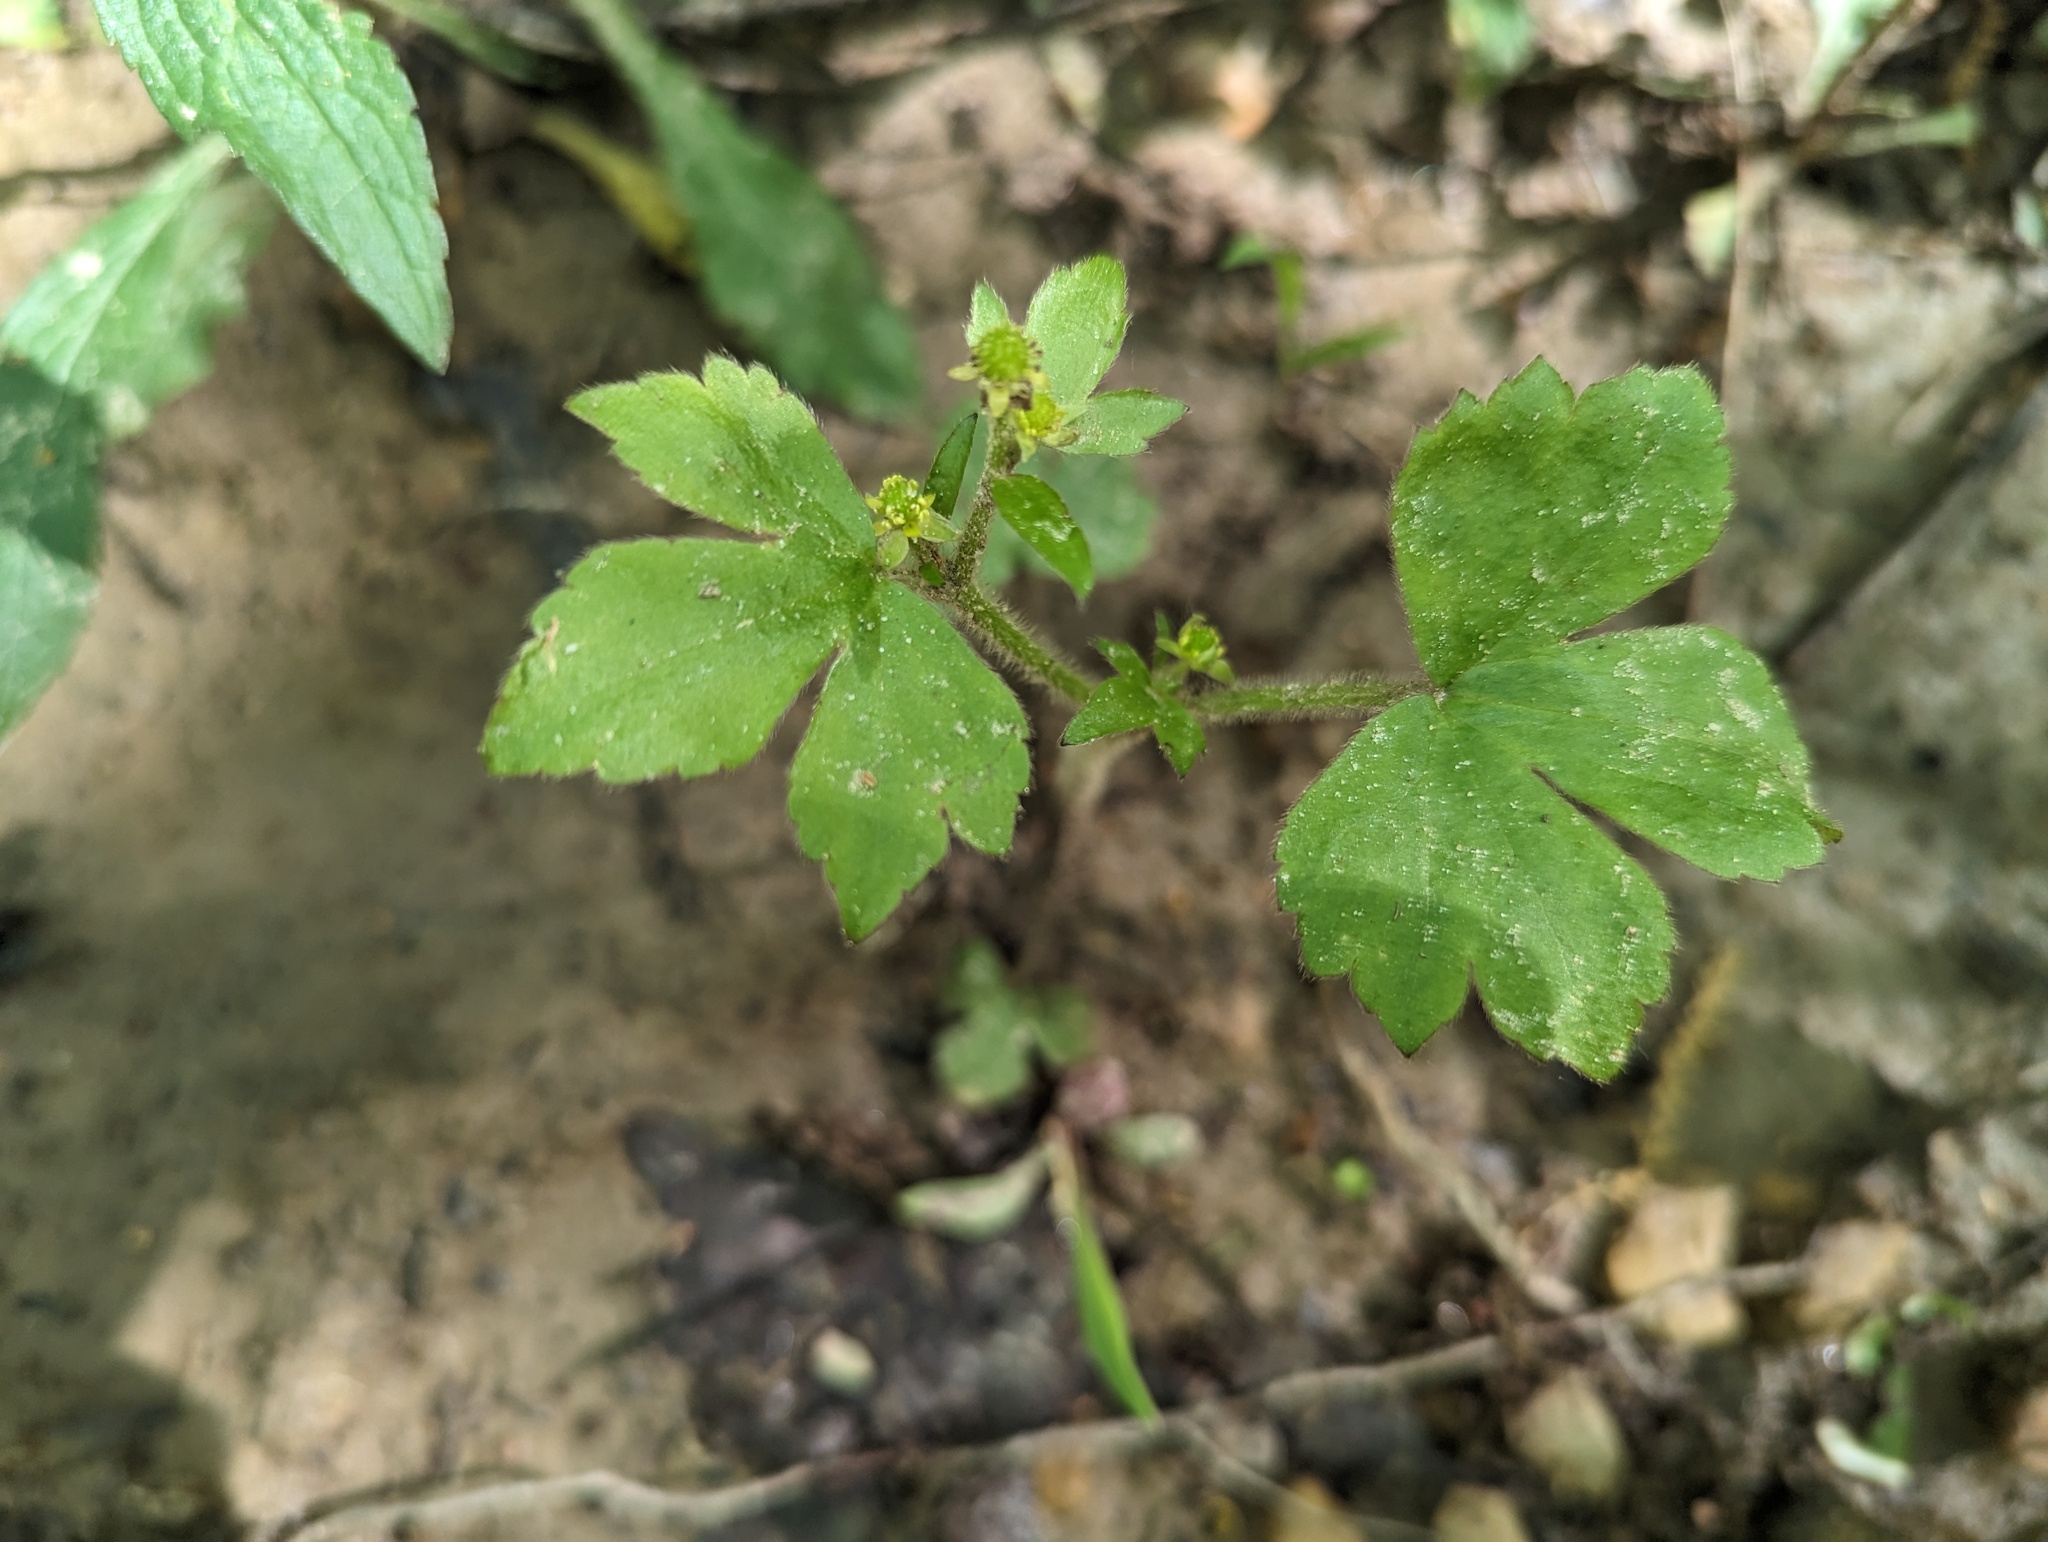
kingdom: Plantae
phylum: Tracheophyta
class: Magnoliopsida
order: Ranunculales
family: Ranunculaceae
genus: Ranunculus
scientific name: Ranunculus recurvatus
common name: Blisterwort
